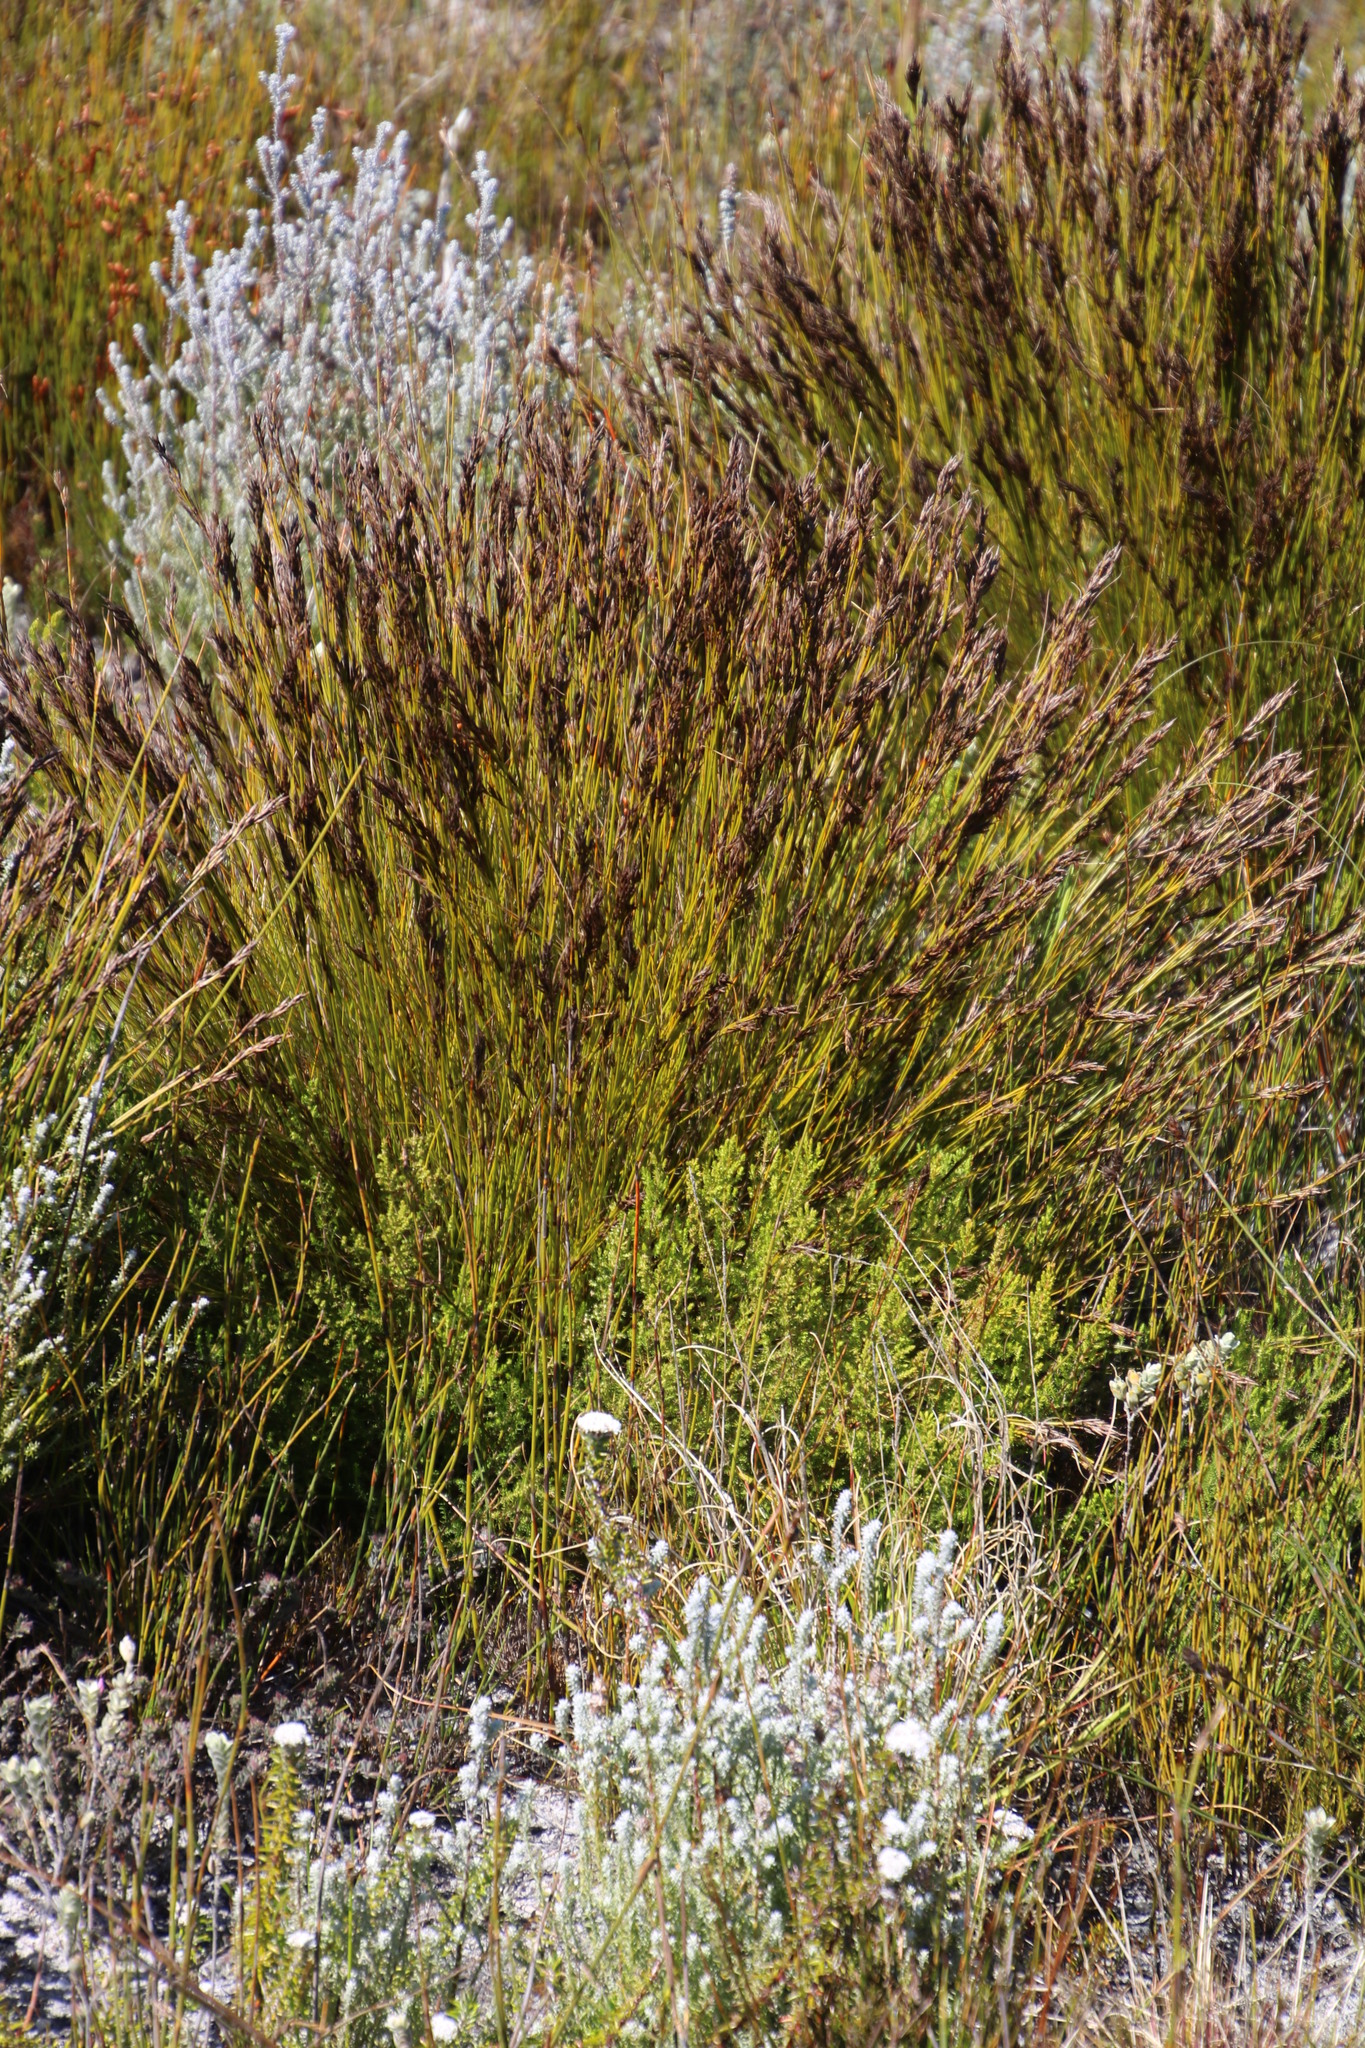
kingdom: Plantae
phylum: Tracheophyta
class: Liliopsida
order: Poales
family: Cyperaceae
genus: Tetraria
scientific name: Tetraria fasciata
